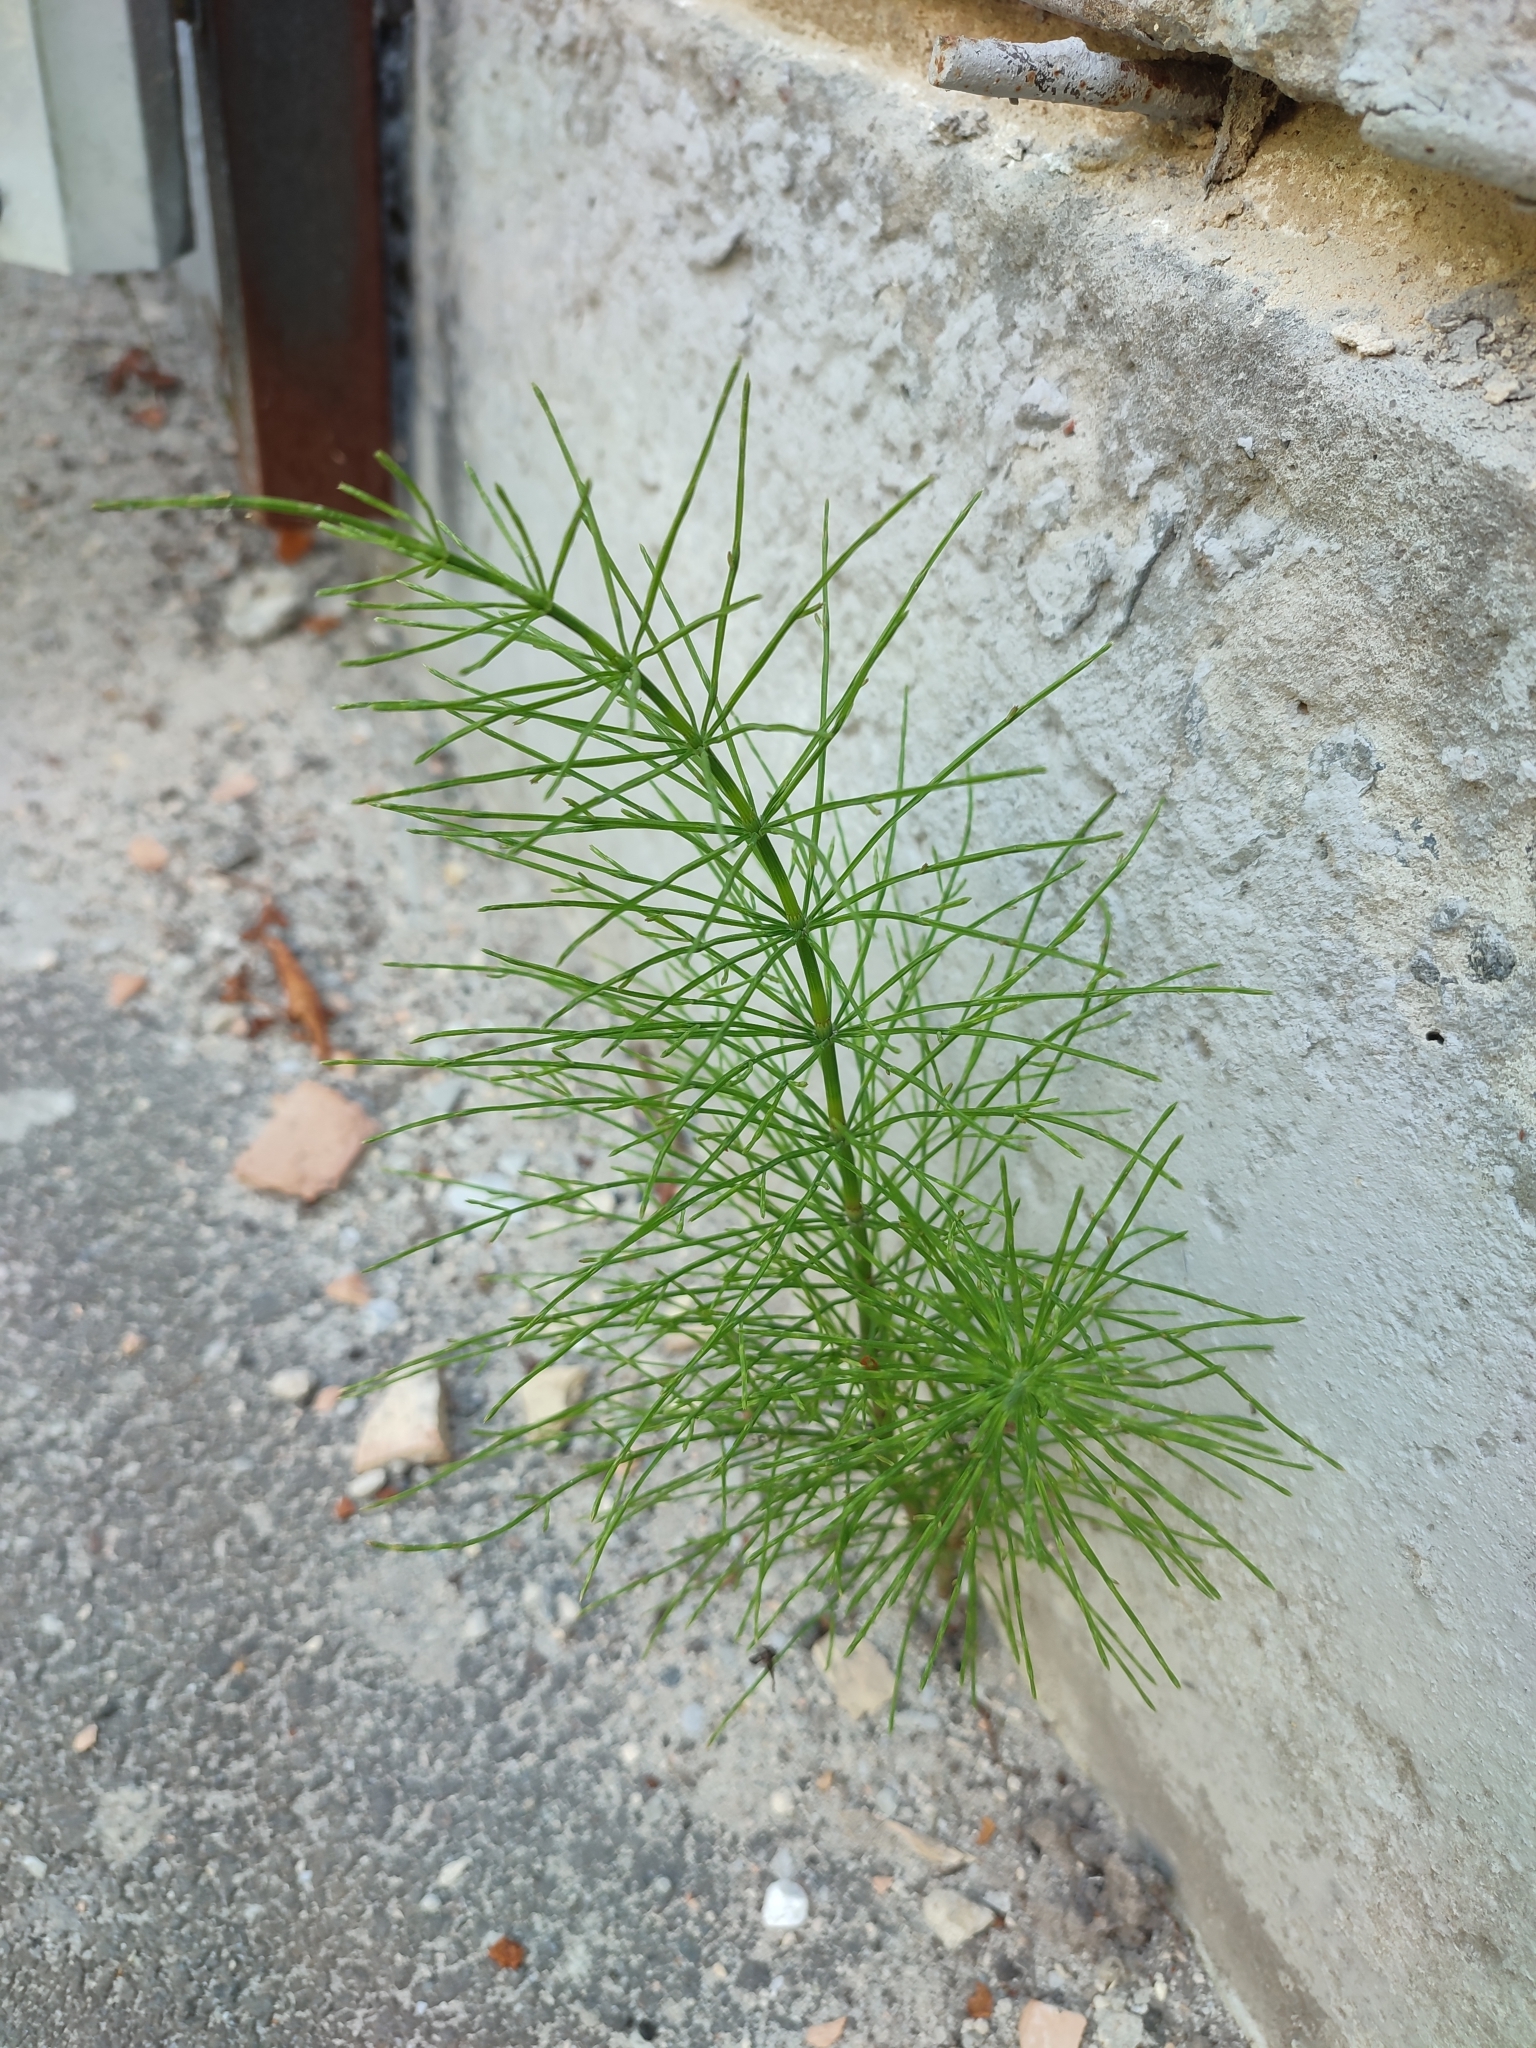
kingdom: Plantae
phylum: Tracheophyta
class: Polypodiopsida
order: Equisetales
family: Equisetaceae
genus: Equisetum
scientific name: Equisetum arvense
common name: Field horsetail
